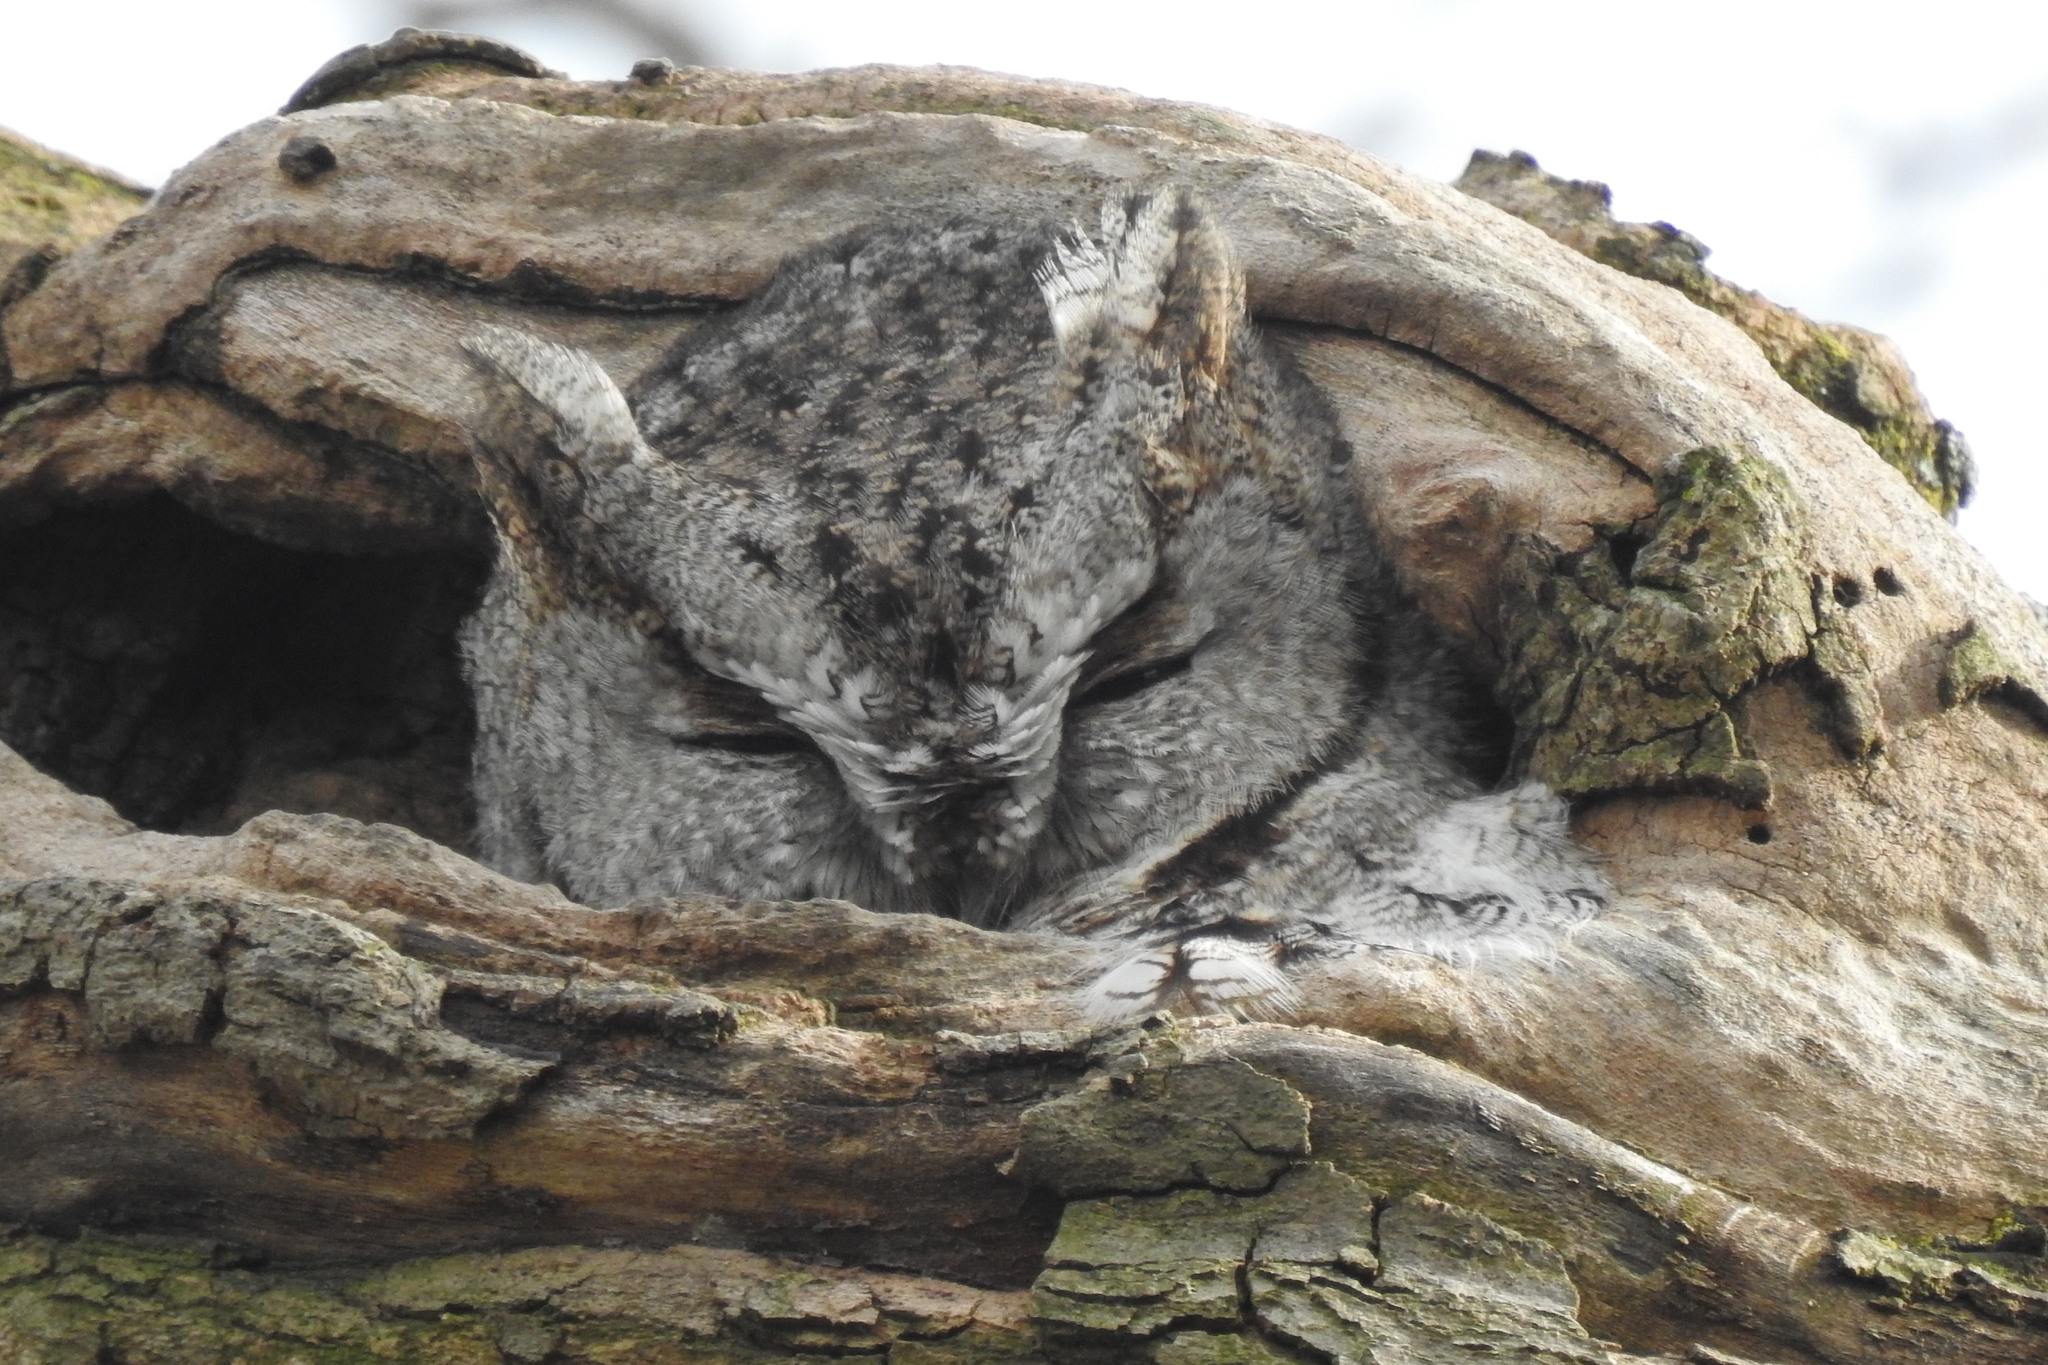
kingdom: Animalia
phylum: Chordata
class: Aves
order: Strigiformes
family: Strigidae
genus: Megascops
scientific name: Megascops asio
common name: Eastern screech-owl
